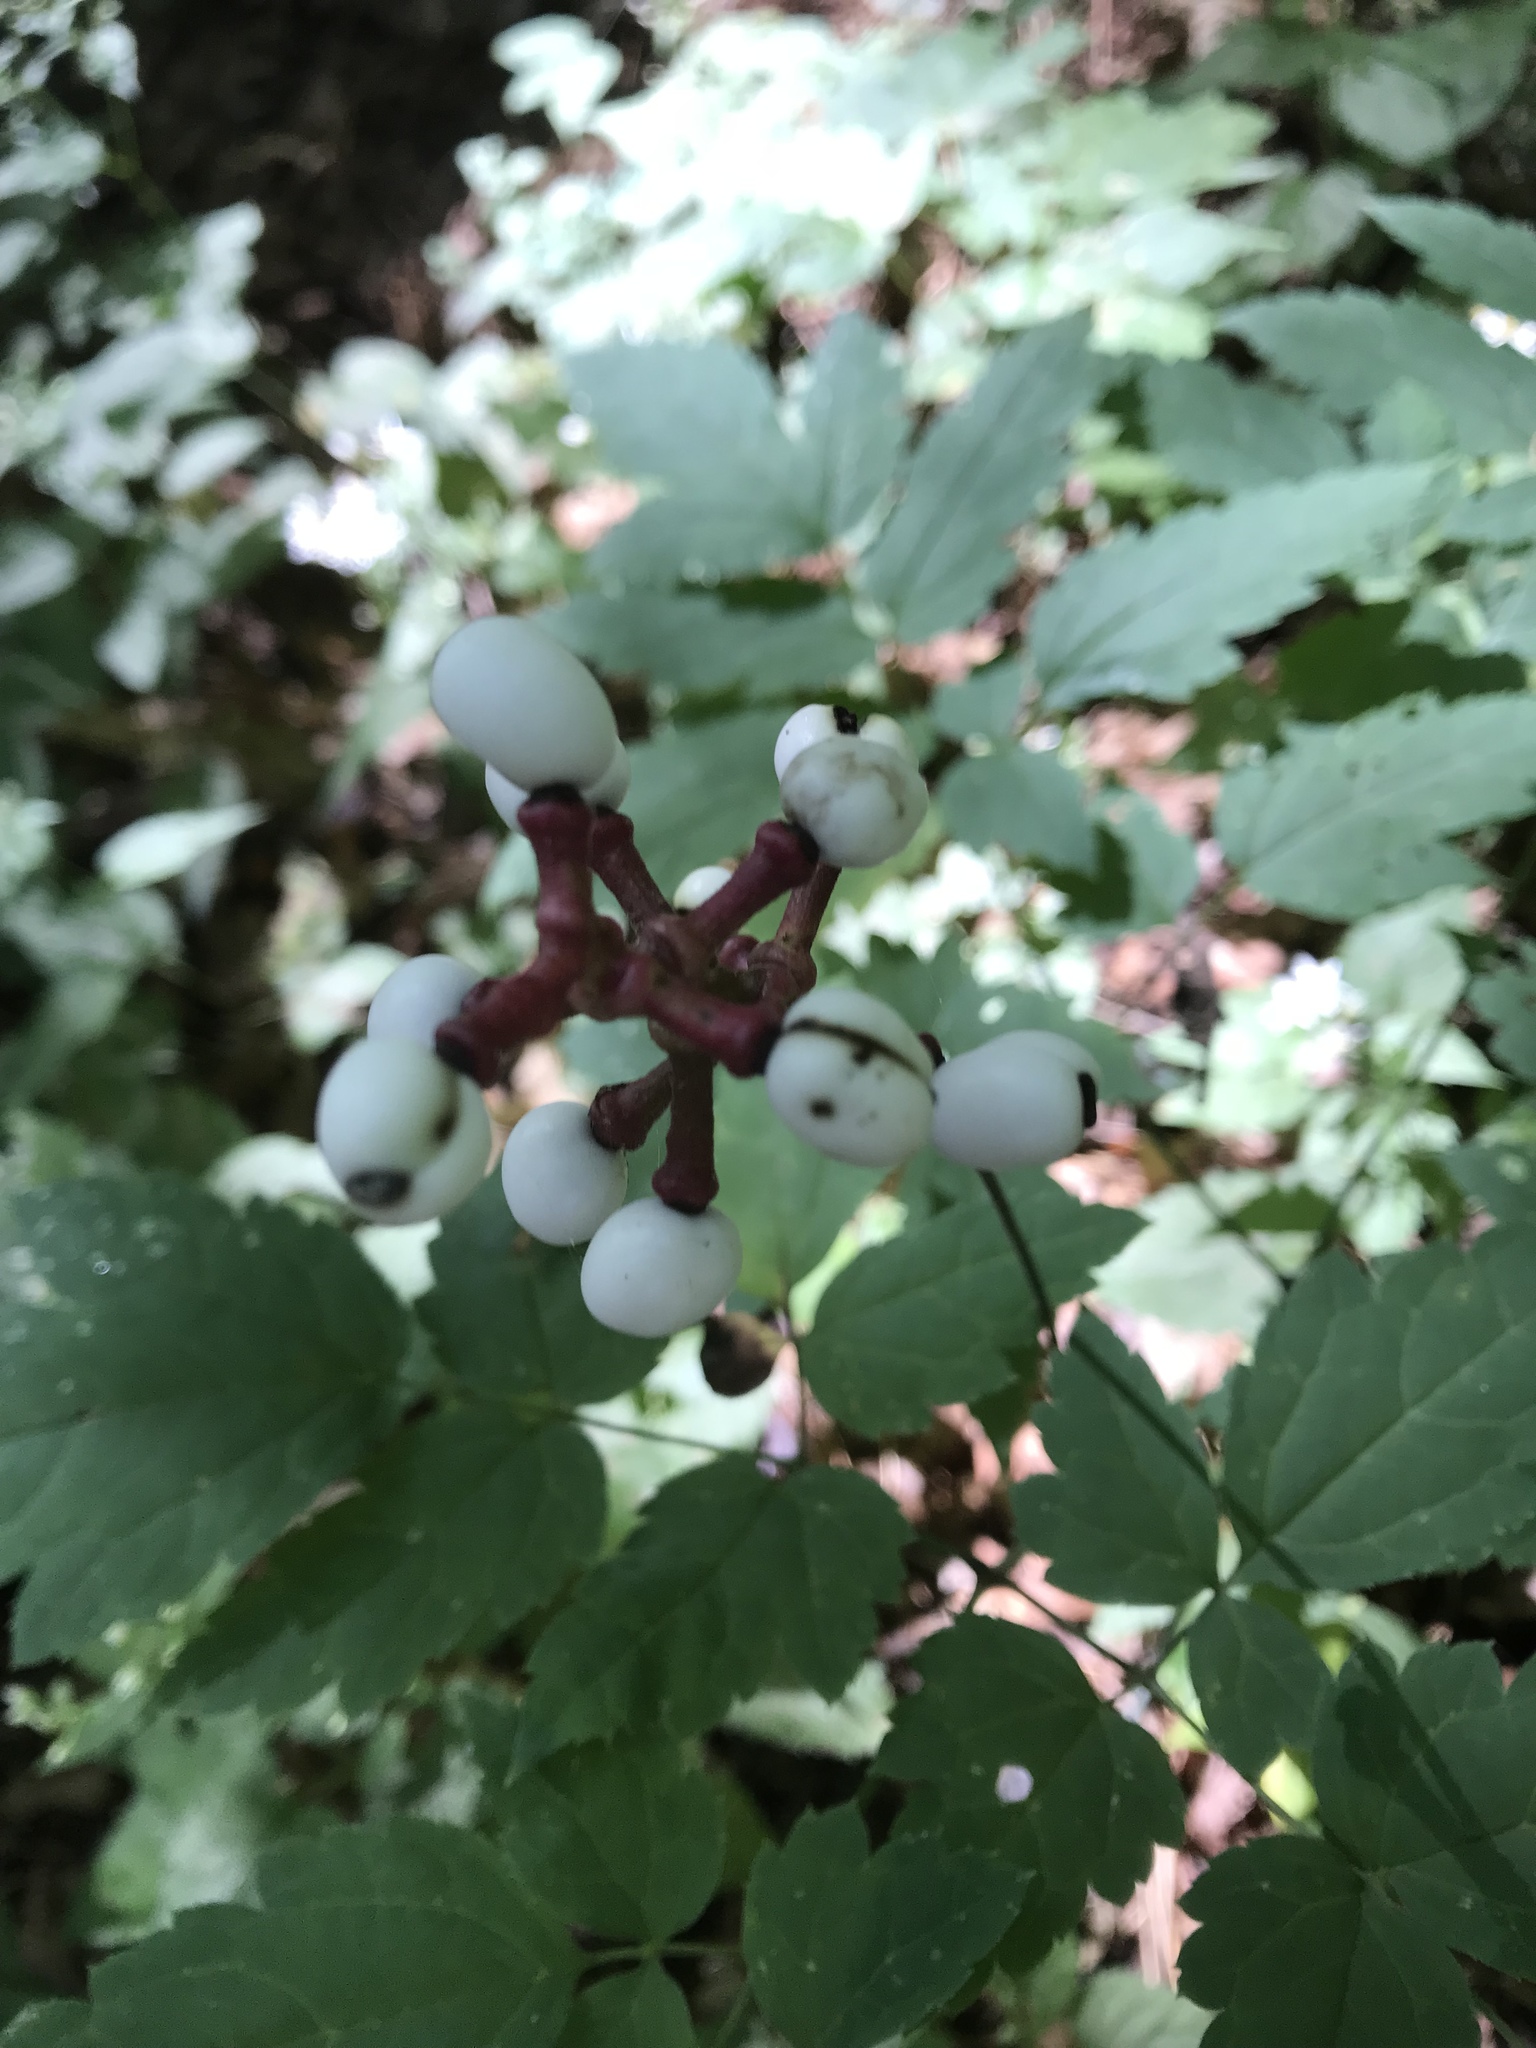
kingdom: Plantae
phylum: Tracheophyta
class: Magnoliopsida
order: Ranunculales
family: Ranunculaceae
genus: Actaea
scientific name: Actaea pachypoda
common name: Doll's-eyes
